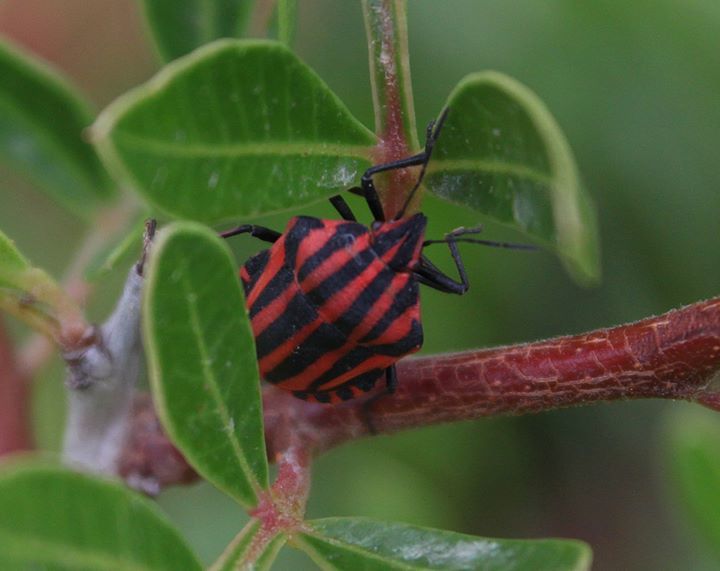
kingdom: Animalia
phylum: Arthropoda
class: Insecta
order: Hemiptera
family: Pentatomidae
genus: Graphosoma
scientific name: Graphosoma italicum
